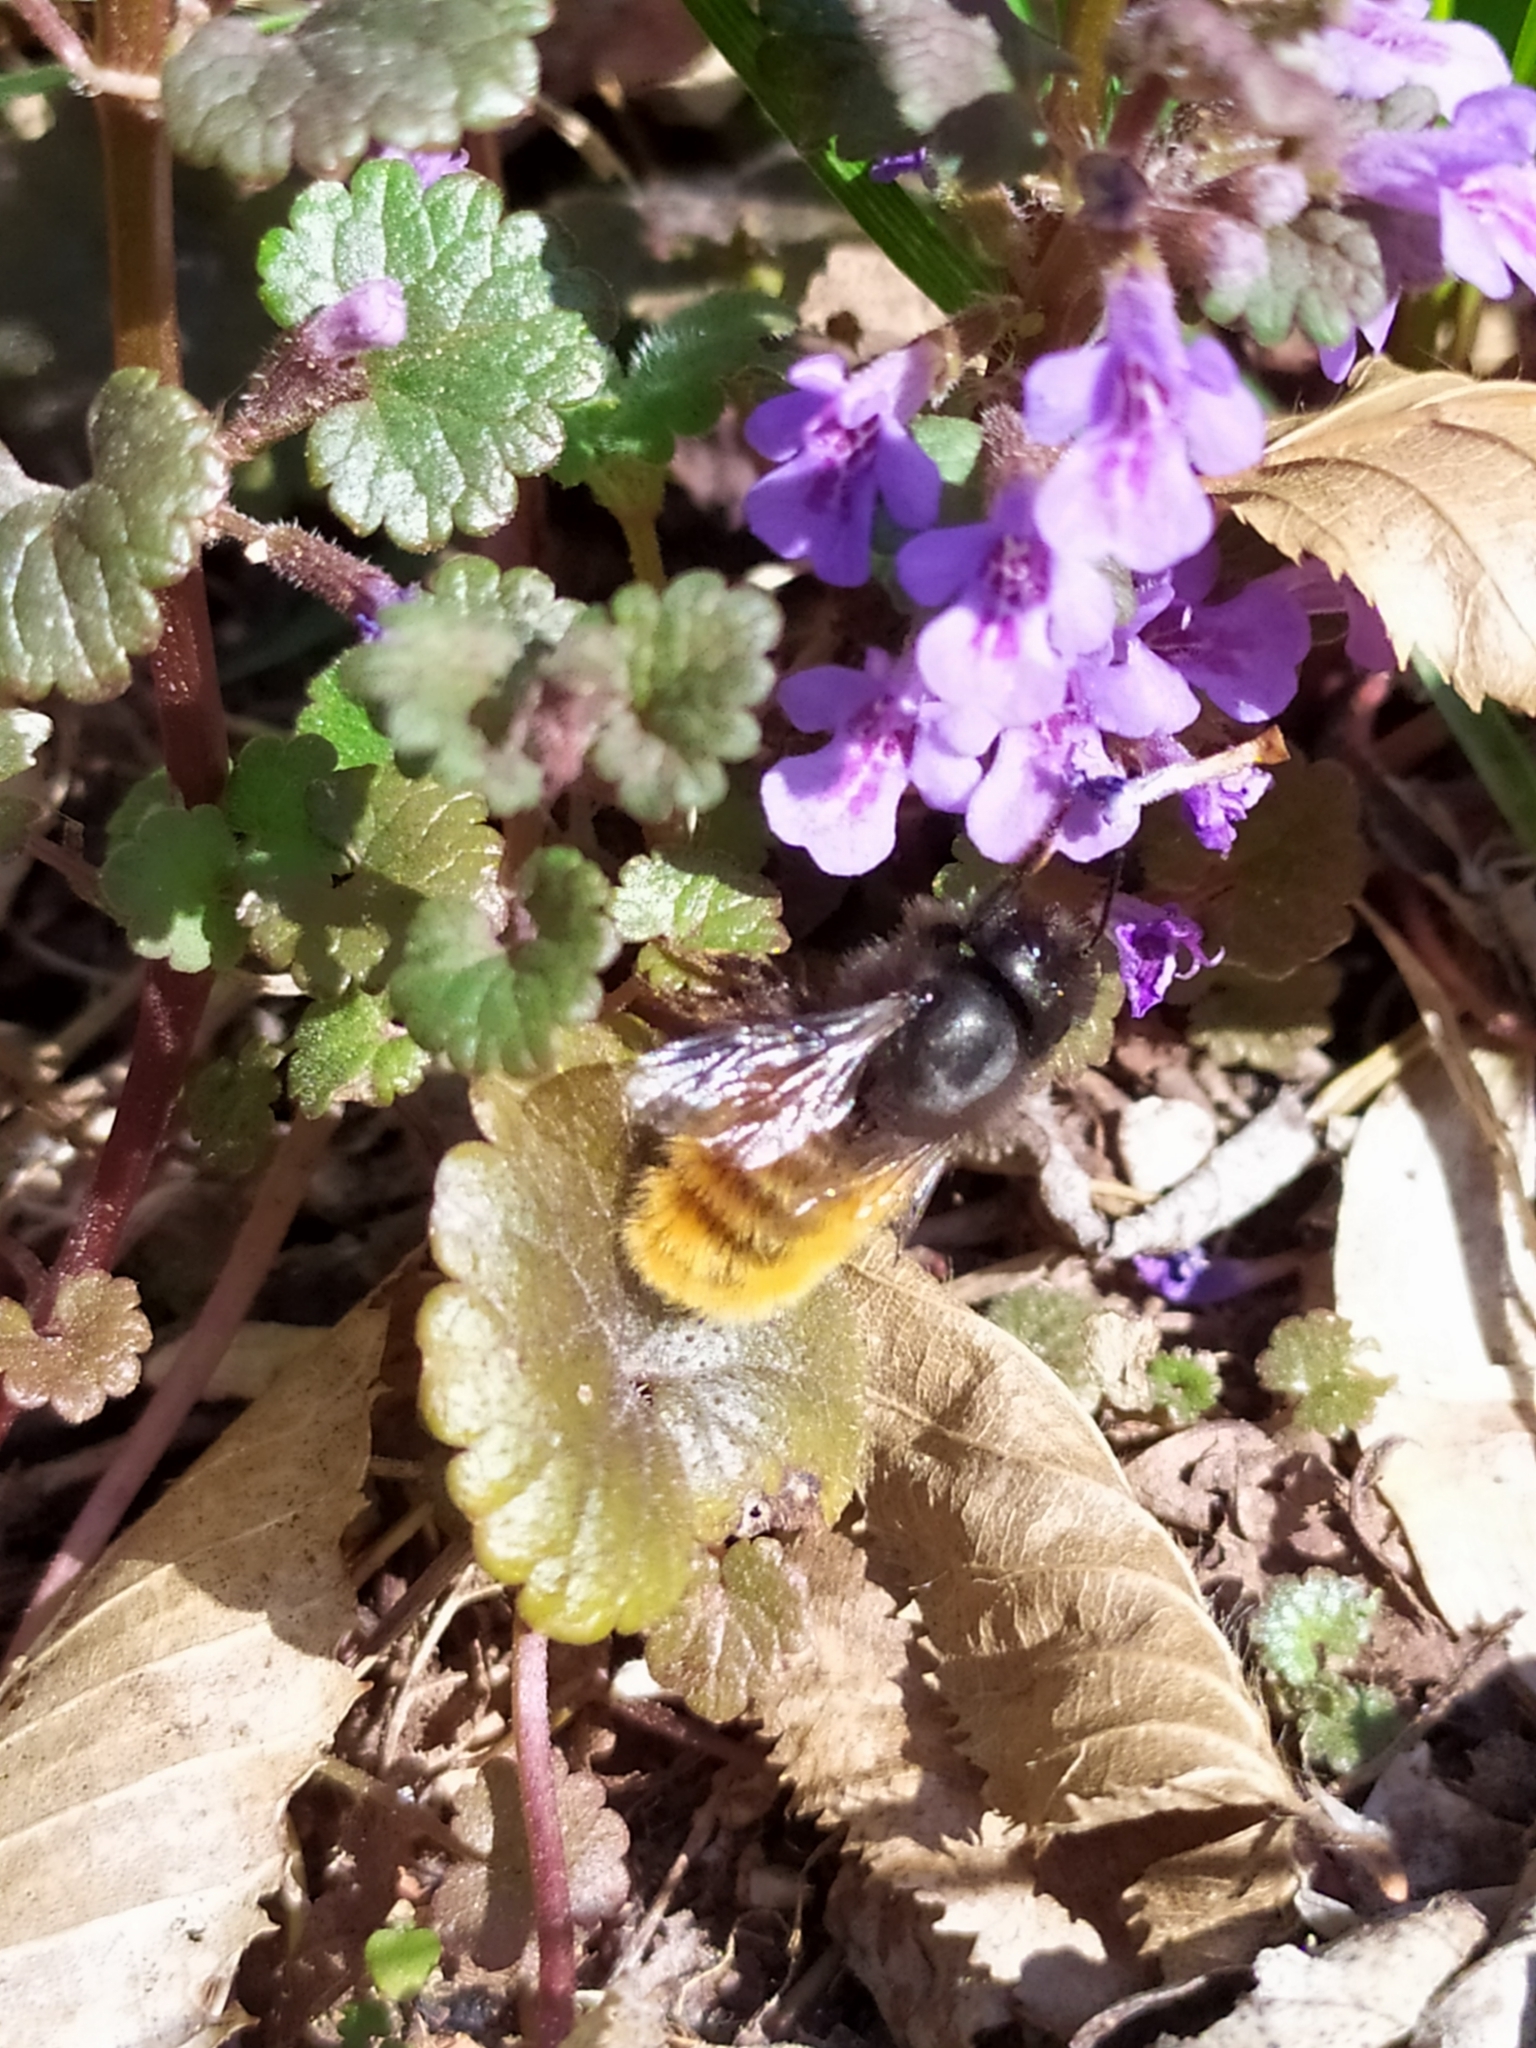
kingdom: Animalia
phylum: Arthropoda
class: Insecta
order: Hymenoptera
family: Megachilidae
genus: Osmia
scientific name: Osmia cornuta
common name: Mason bee
